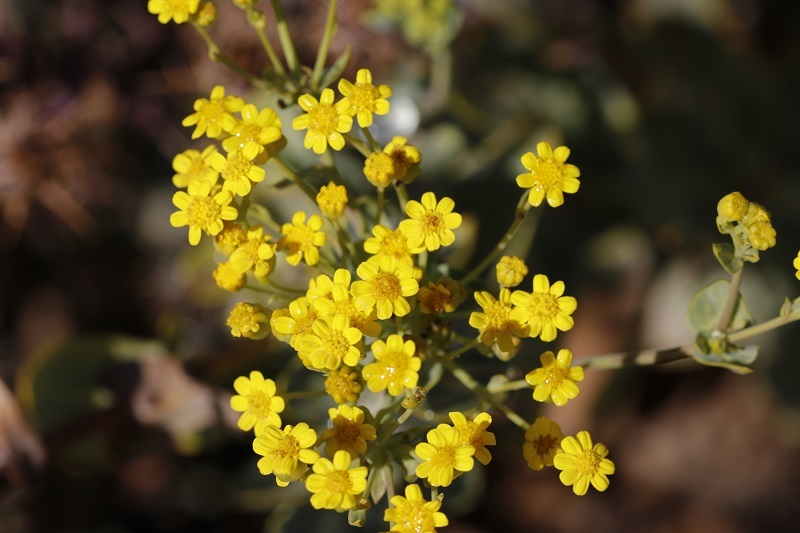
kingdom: Plantae
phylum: Tracheophyta
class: Magnoliopsida
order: Asterales
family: Asteraceae
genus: Othonna
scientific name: Othonna parviflora
